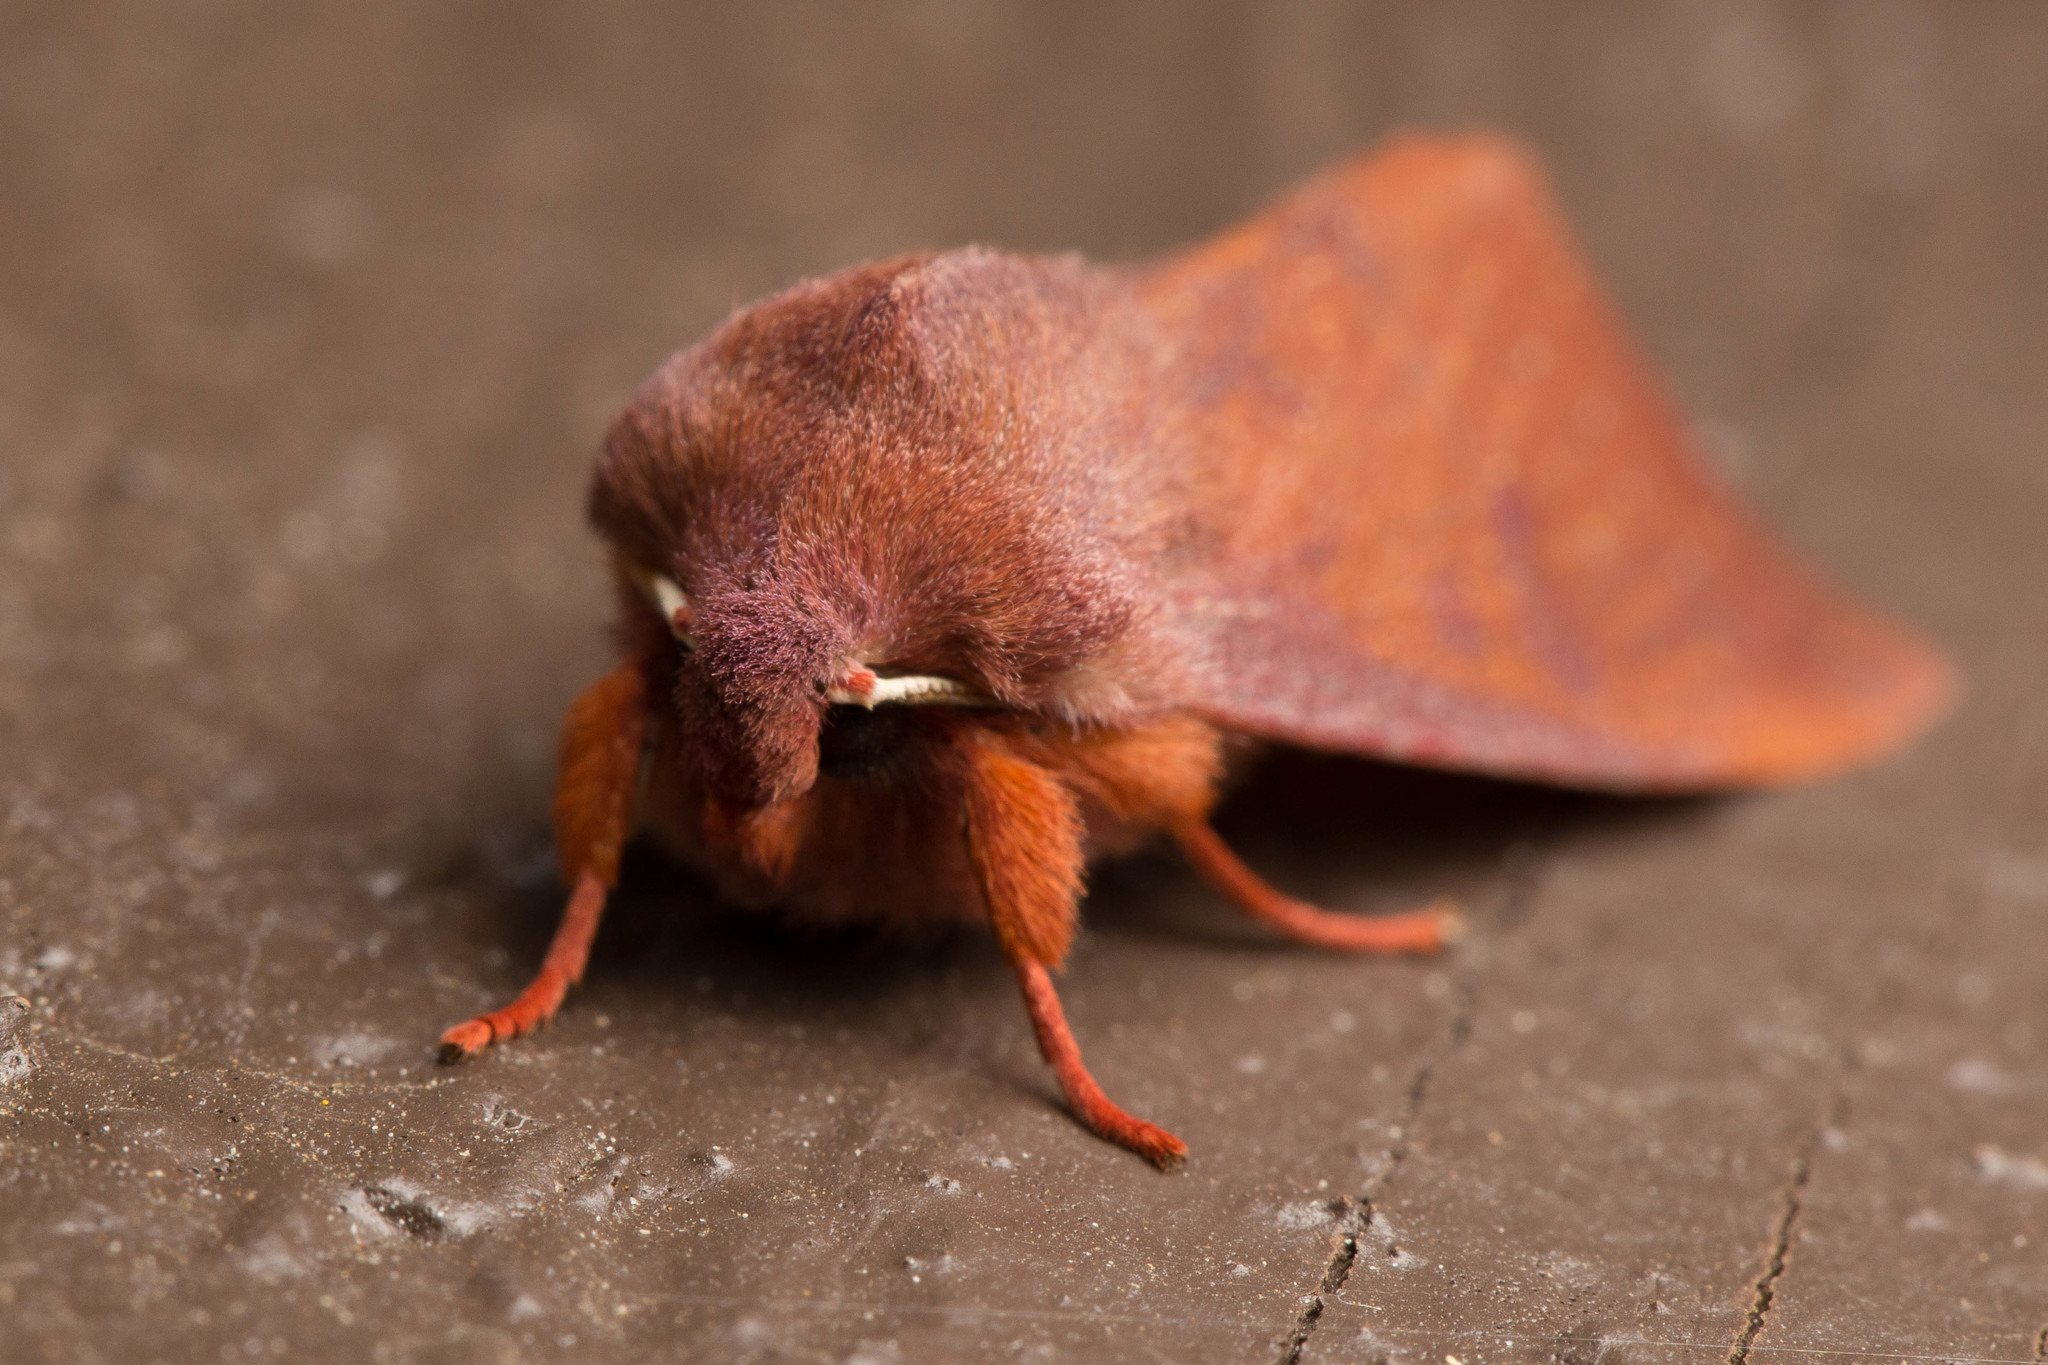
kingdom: Animalia
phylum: Arthropoda
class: Insecta
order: Lepidoptera
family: Noctuidae
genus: Orthosia
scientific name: Orthosia mys
